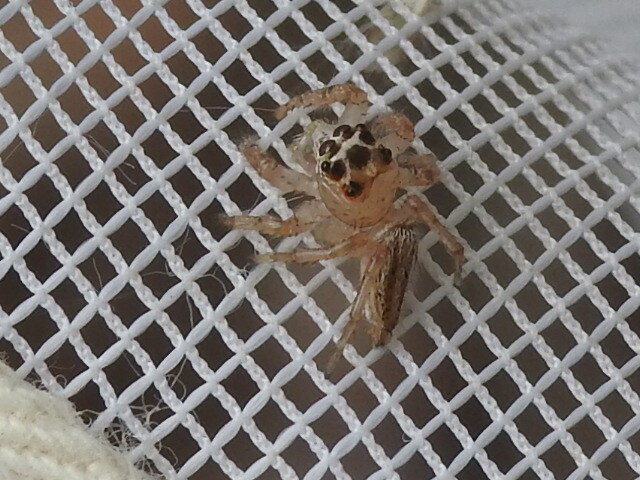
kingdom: Animalia
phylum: Arthropoda
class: Arachnida
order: Araneae
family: Salticidae
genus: Colonus
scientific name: Colonus sylvanus
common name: Jumping spiders
